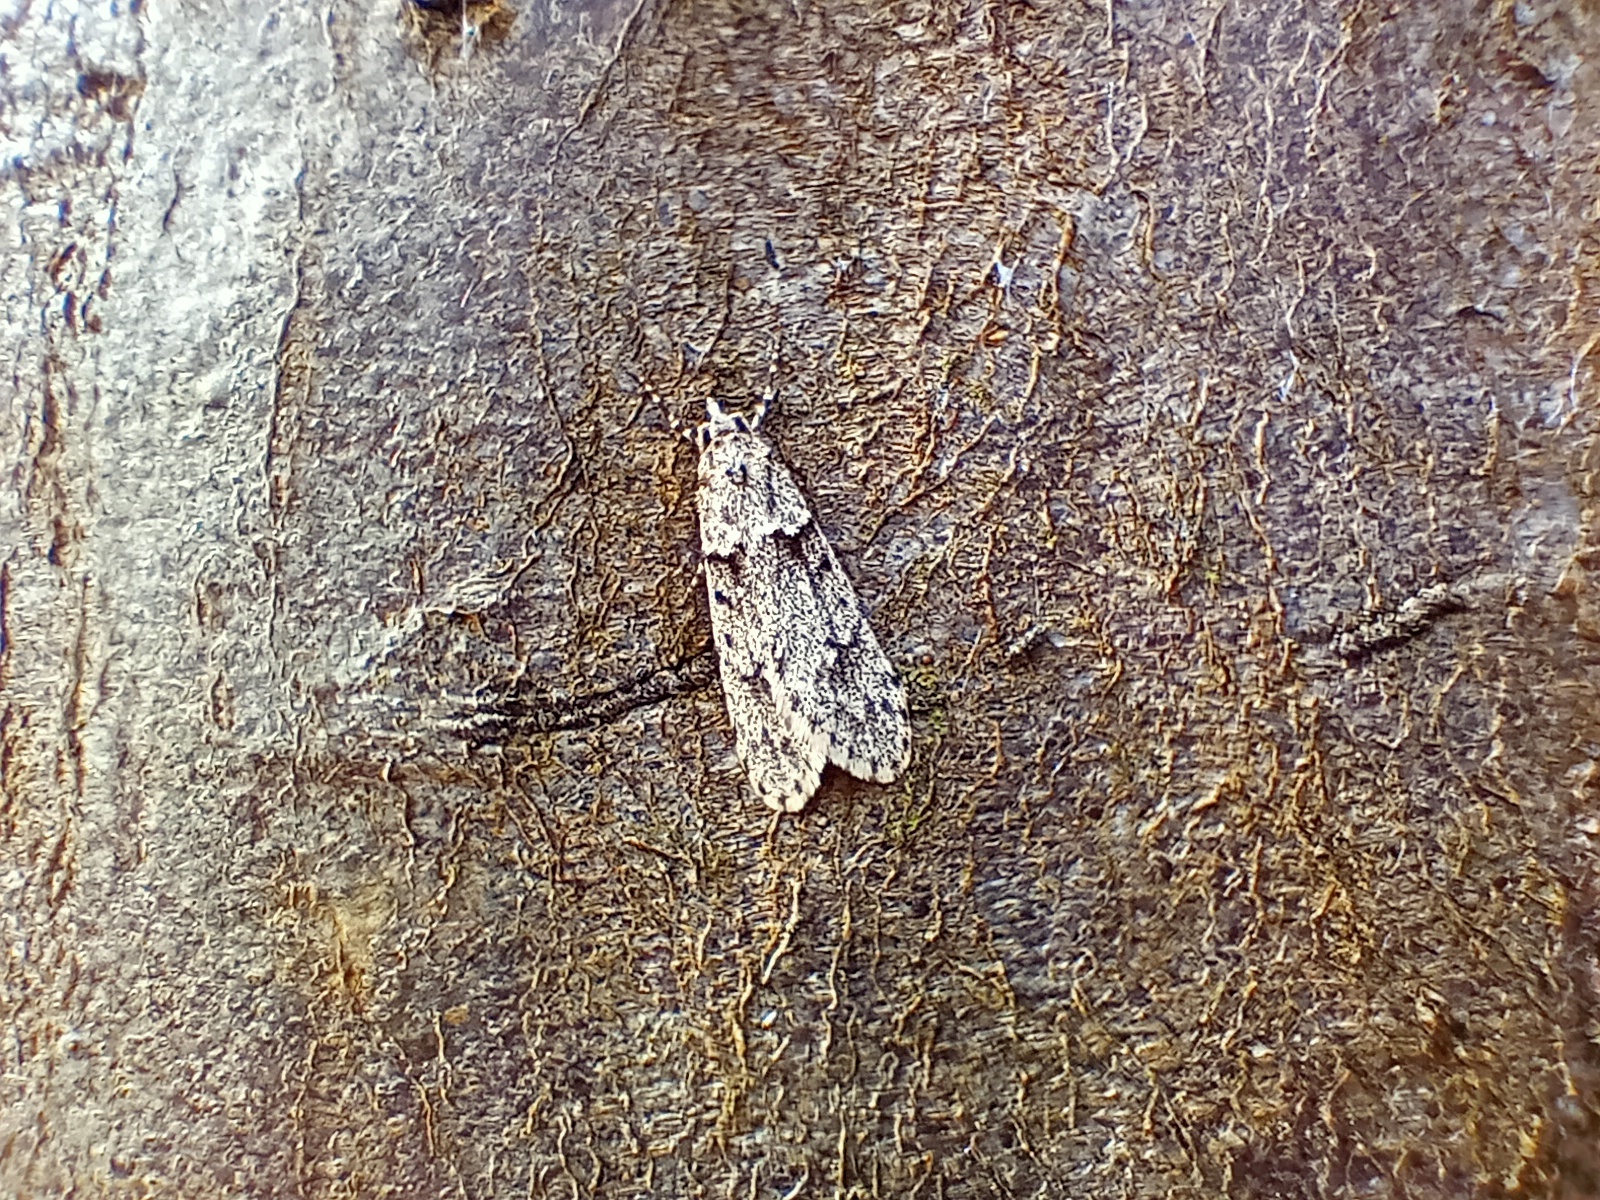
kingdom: Animalia
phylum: Arthropoda
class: Insecta
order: Lepidoptera
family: Lypusidae
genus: Diurnea
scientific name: Diurnea fagella
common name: March tubic
